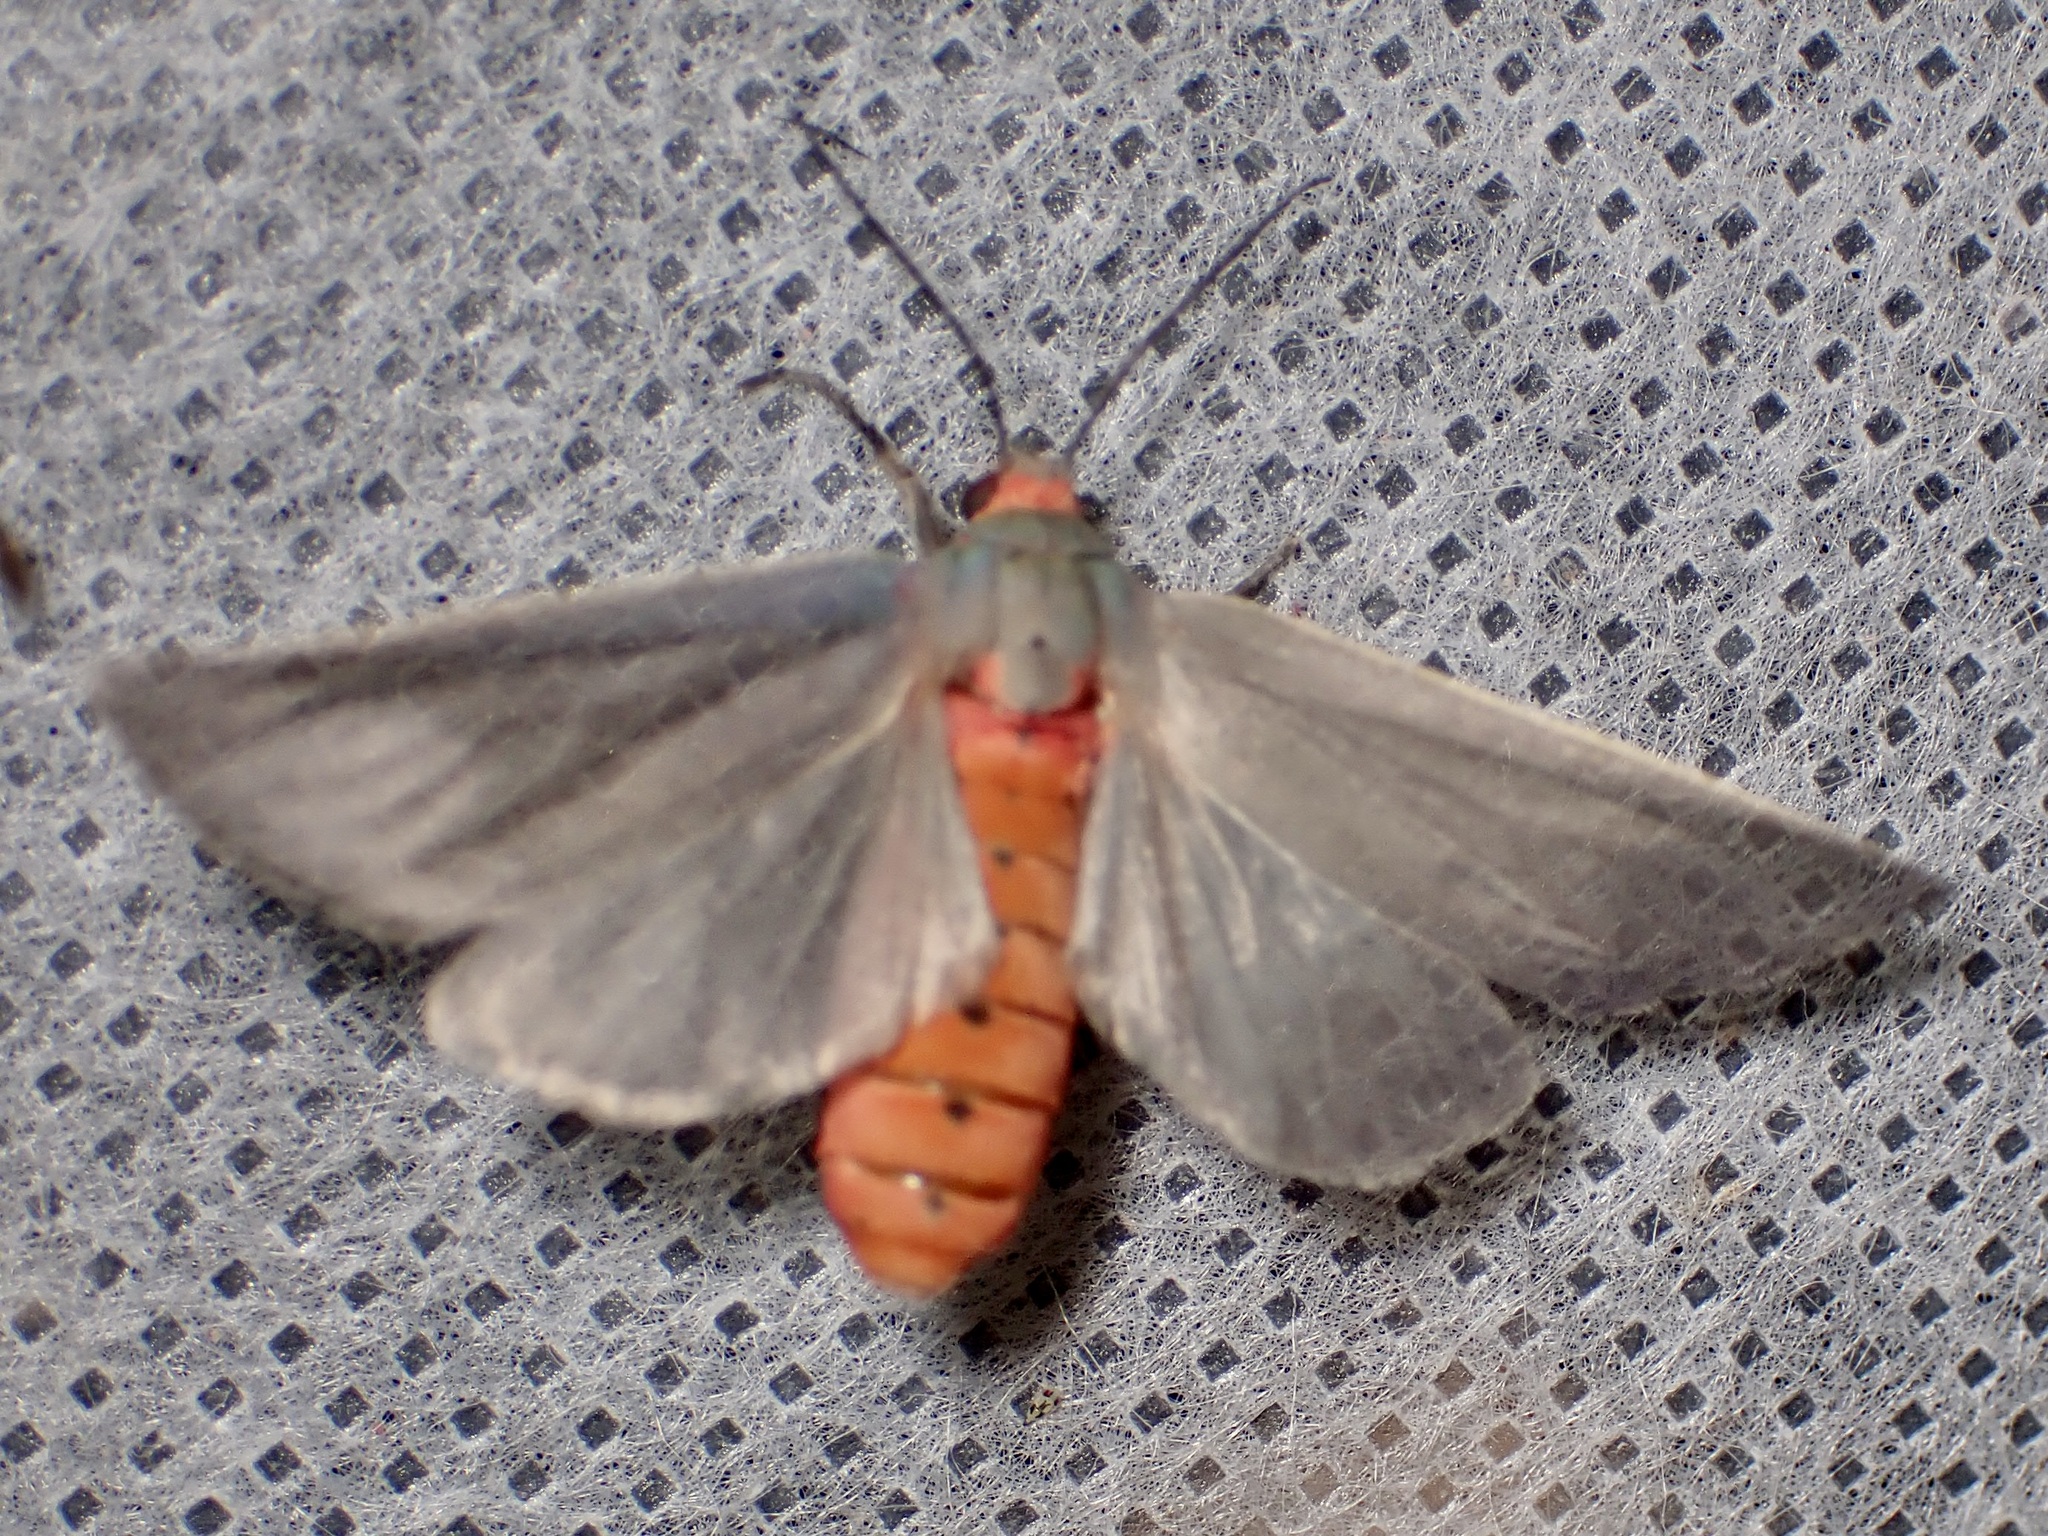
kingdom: Animalia
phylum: Arthropoda
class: Insecta
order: Lepidoptera
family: Erebidae
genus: Pygarctia
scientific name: Pygarctia murina
